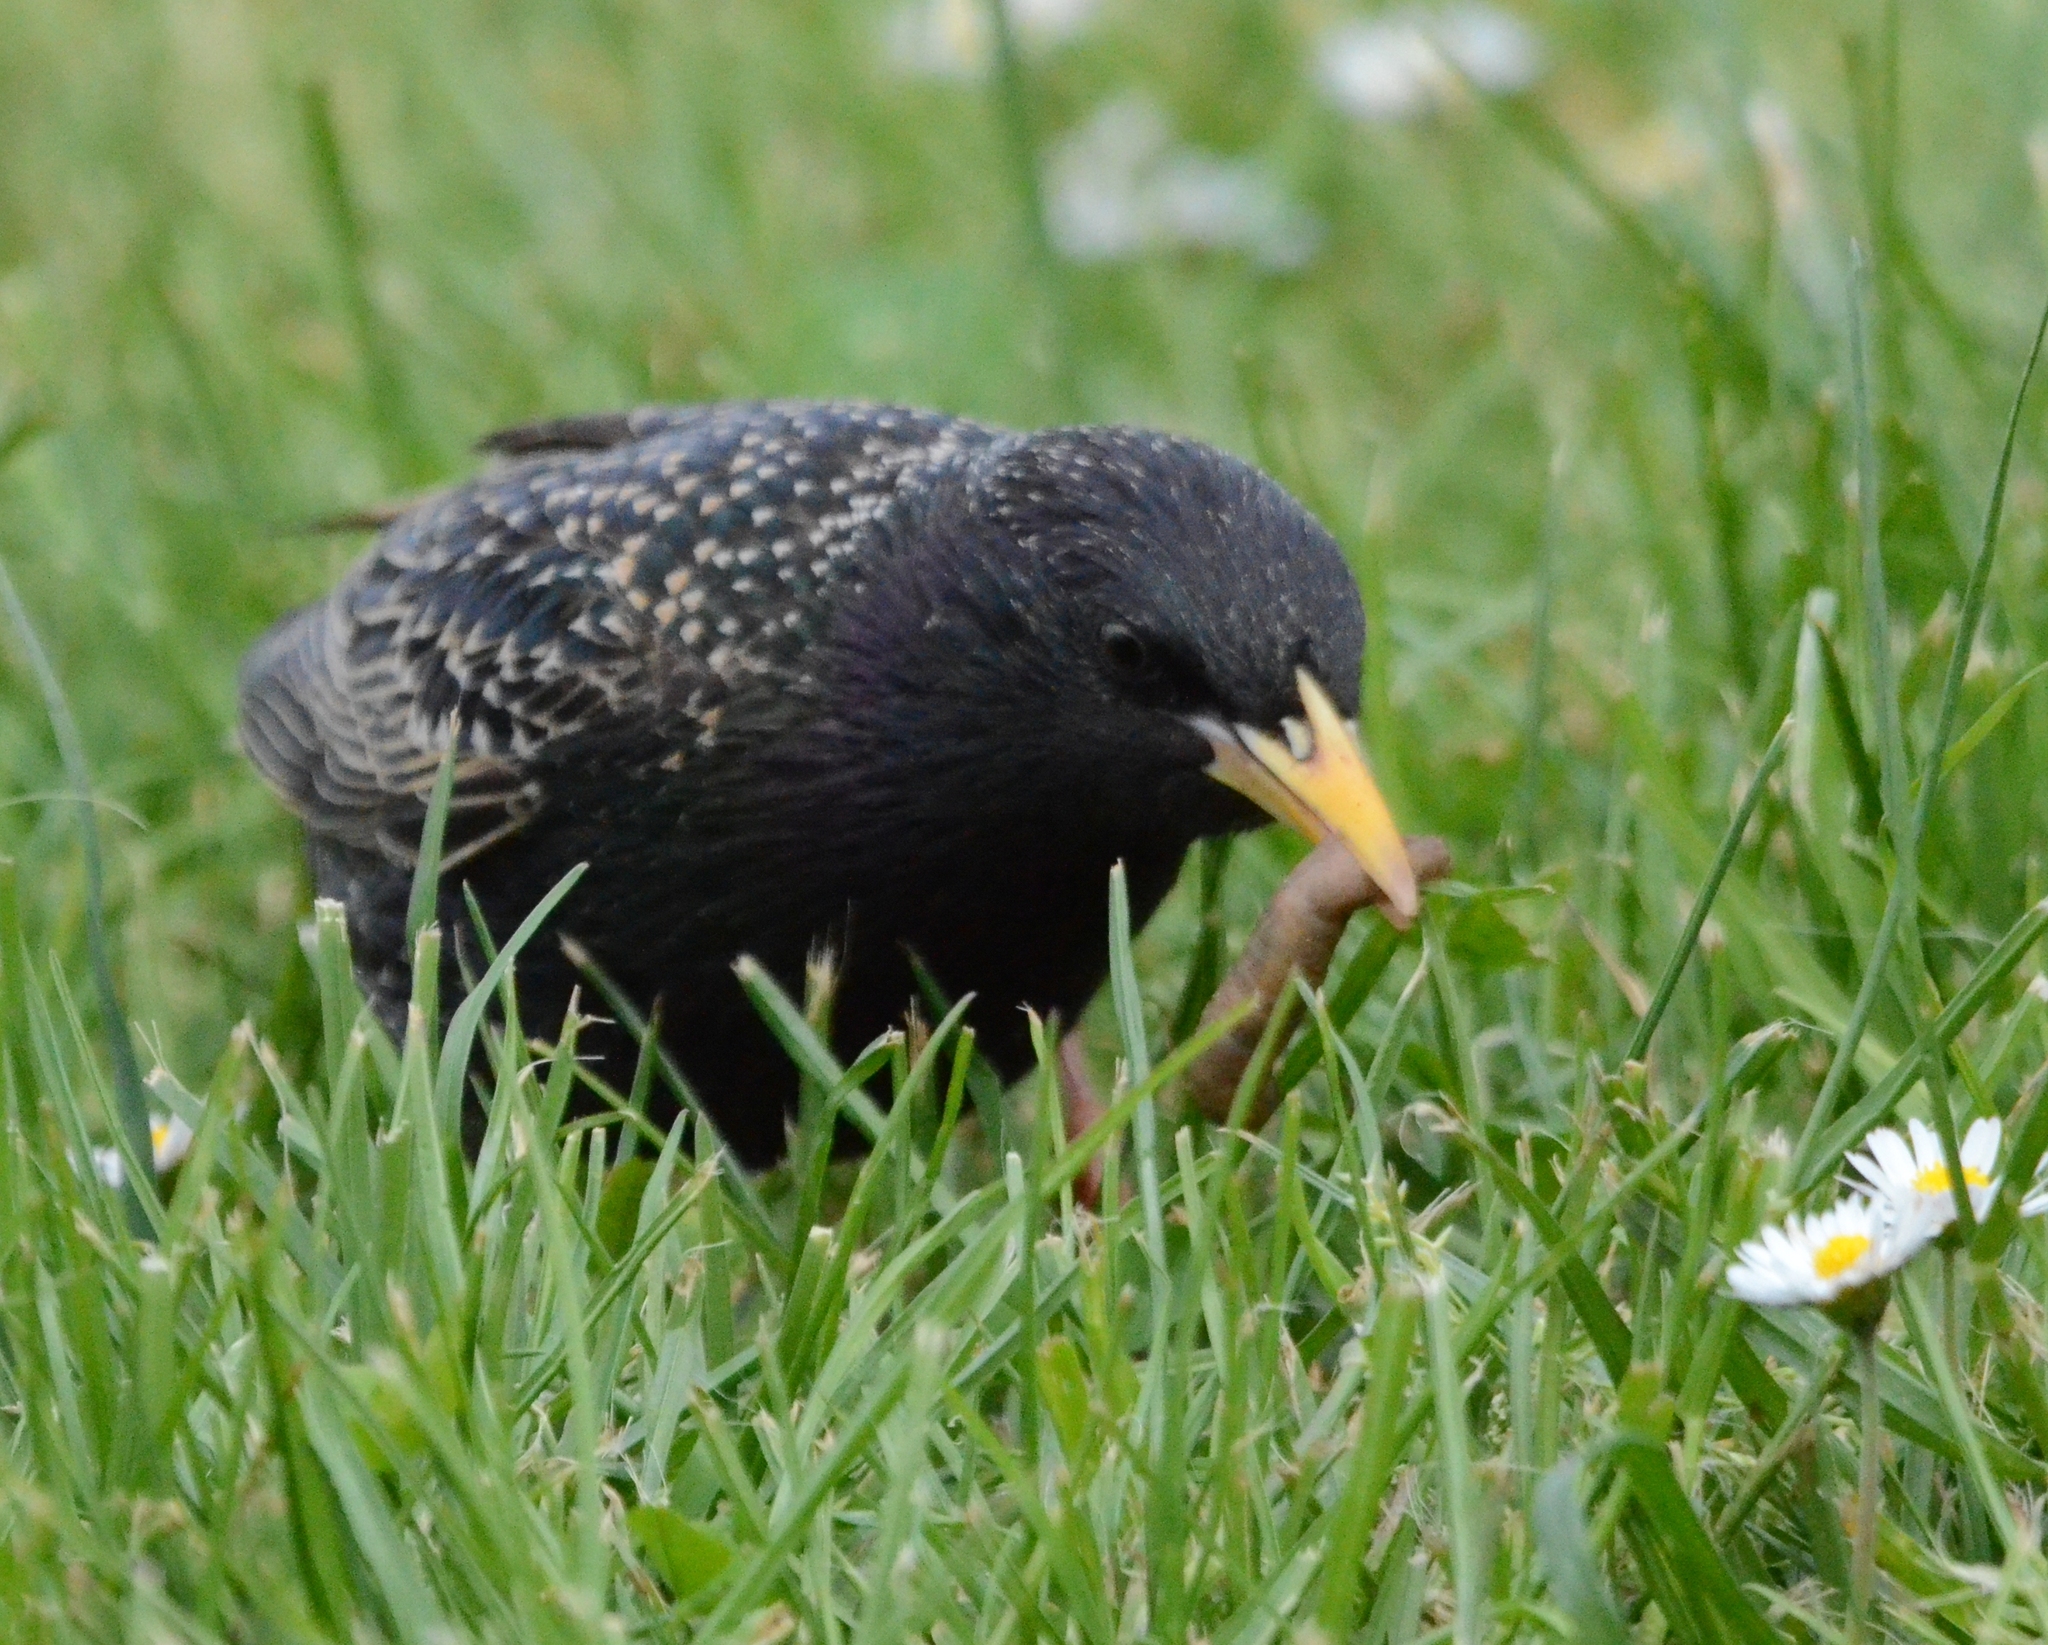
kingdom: Animalia
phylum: Chordata
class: Aves
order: Passeriformes
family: Sturnidae
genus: Sturnus
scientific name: Sturnus vulgaris
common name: Common starling
